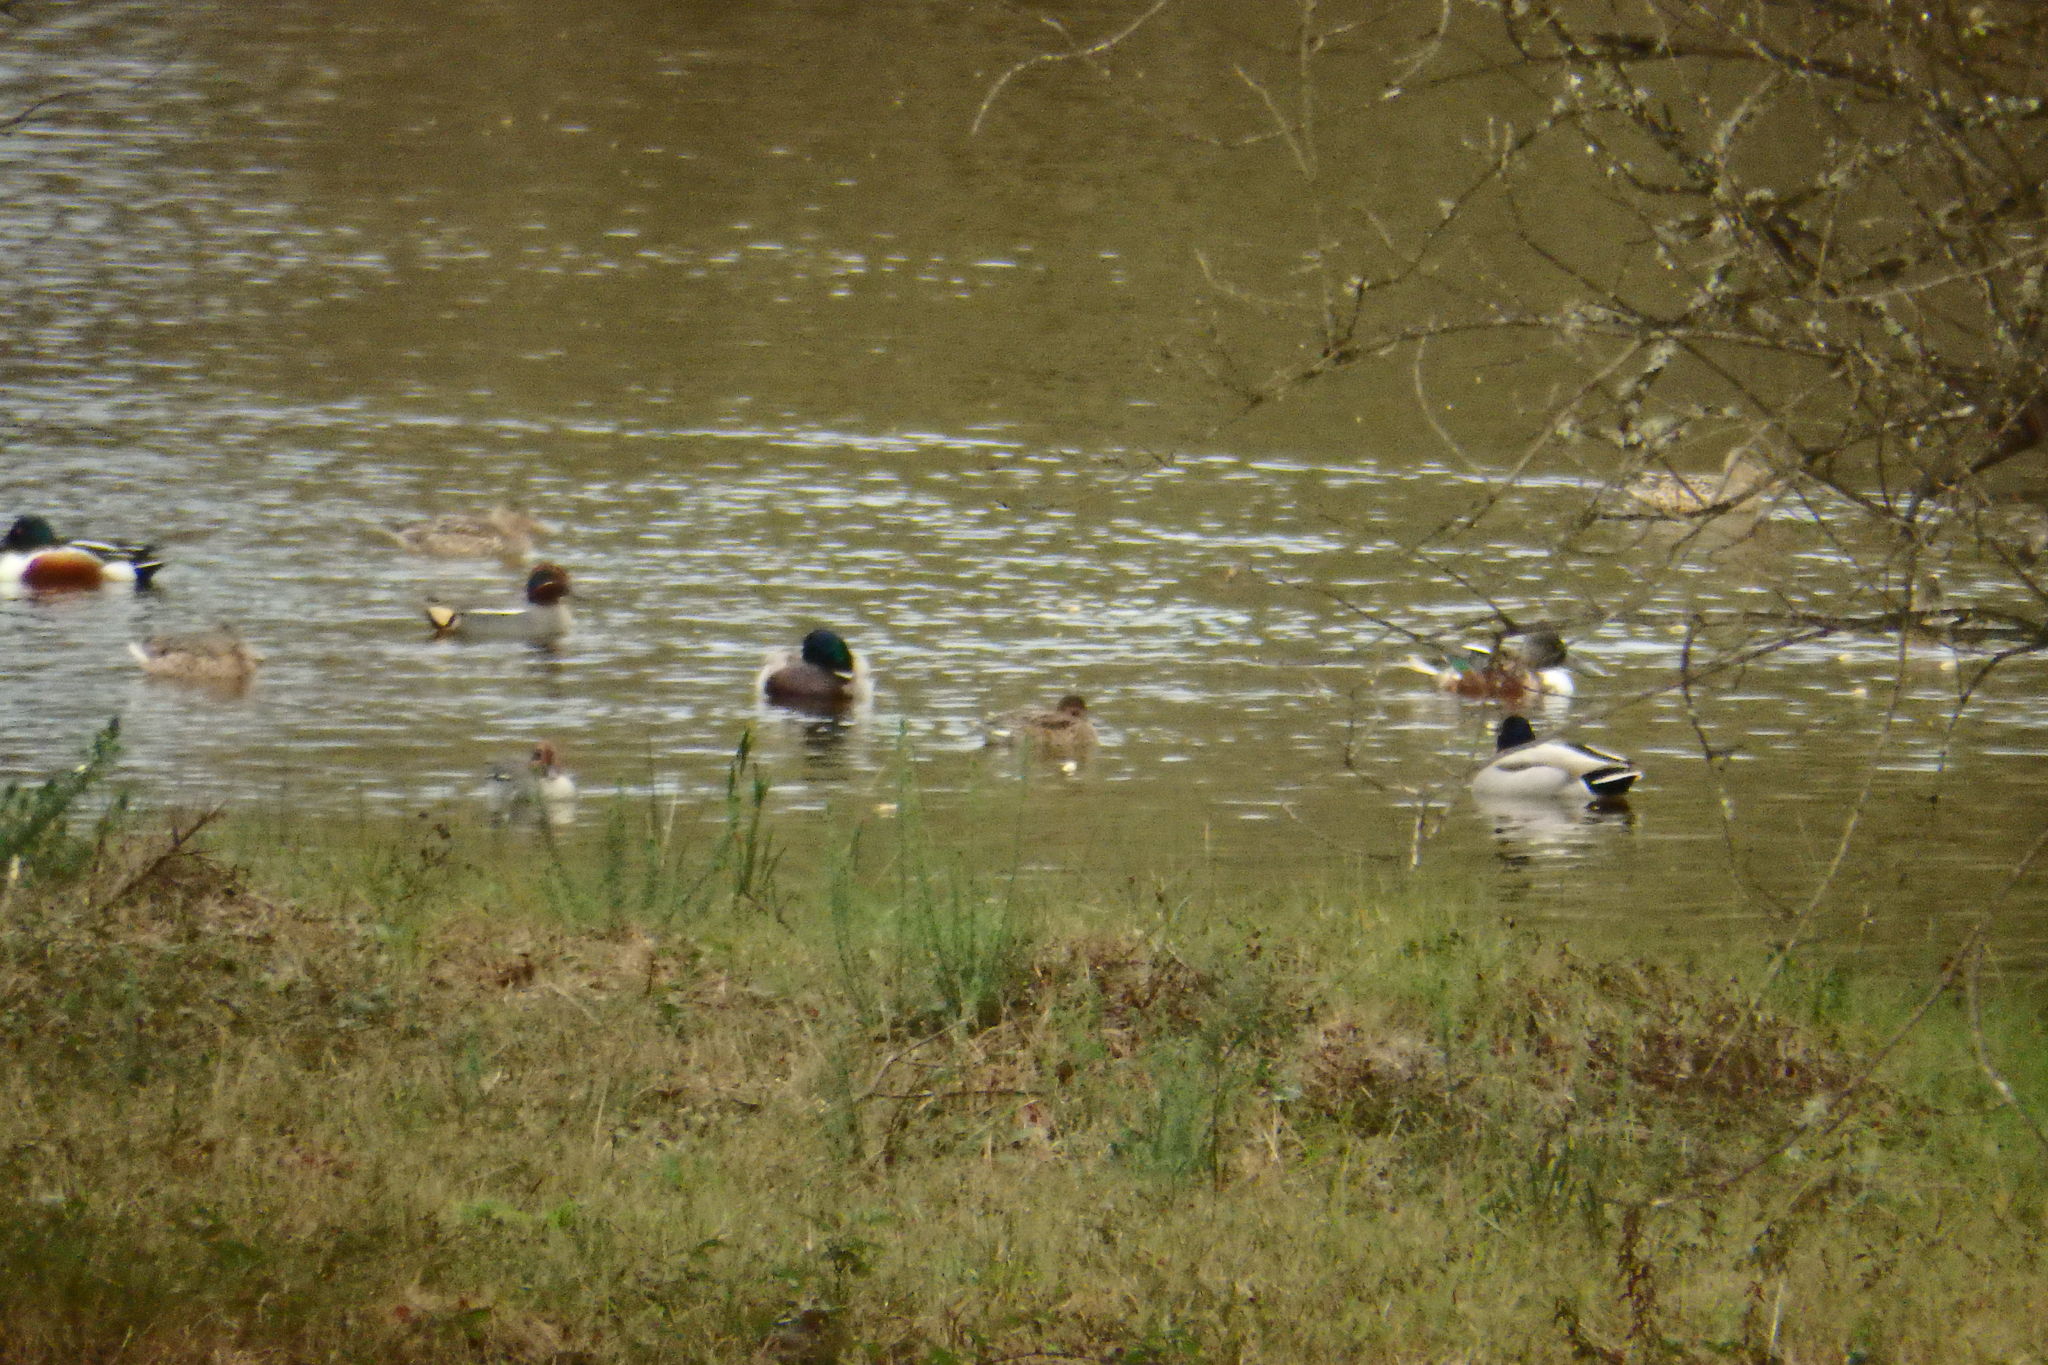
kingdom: Animalia
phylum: Chordata
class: Aves
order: Anseriformes
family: Anatidae
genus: Anas
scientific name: Anas platyrhynchos
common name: Mallard
